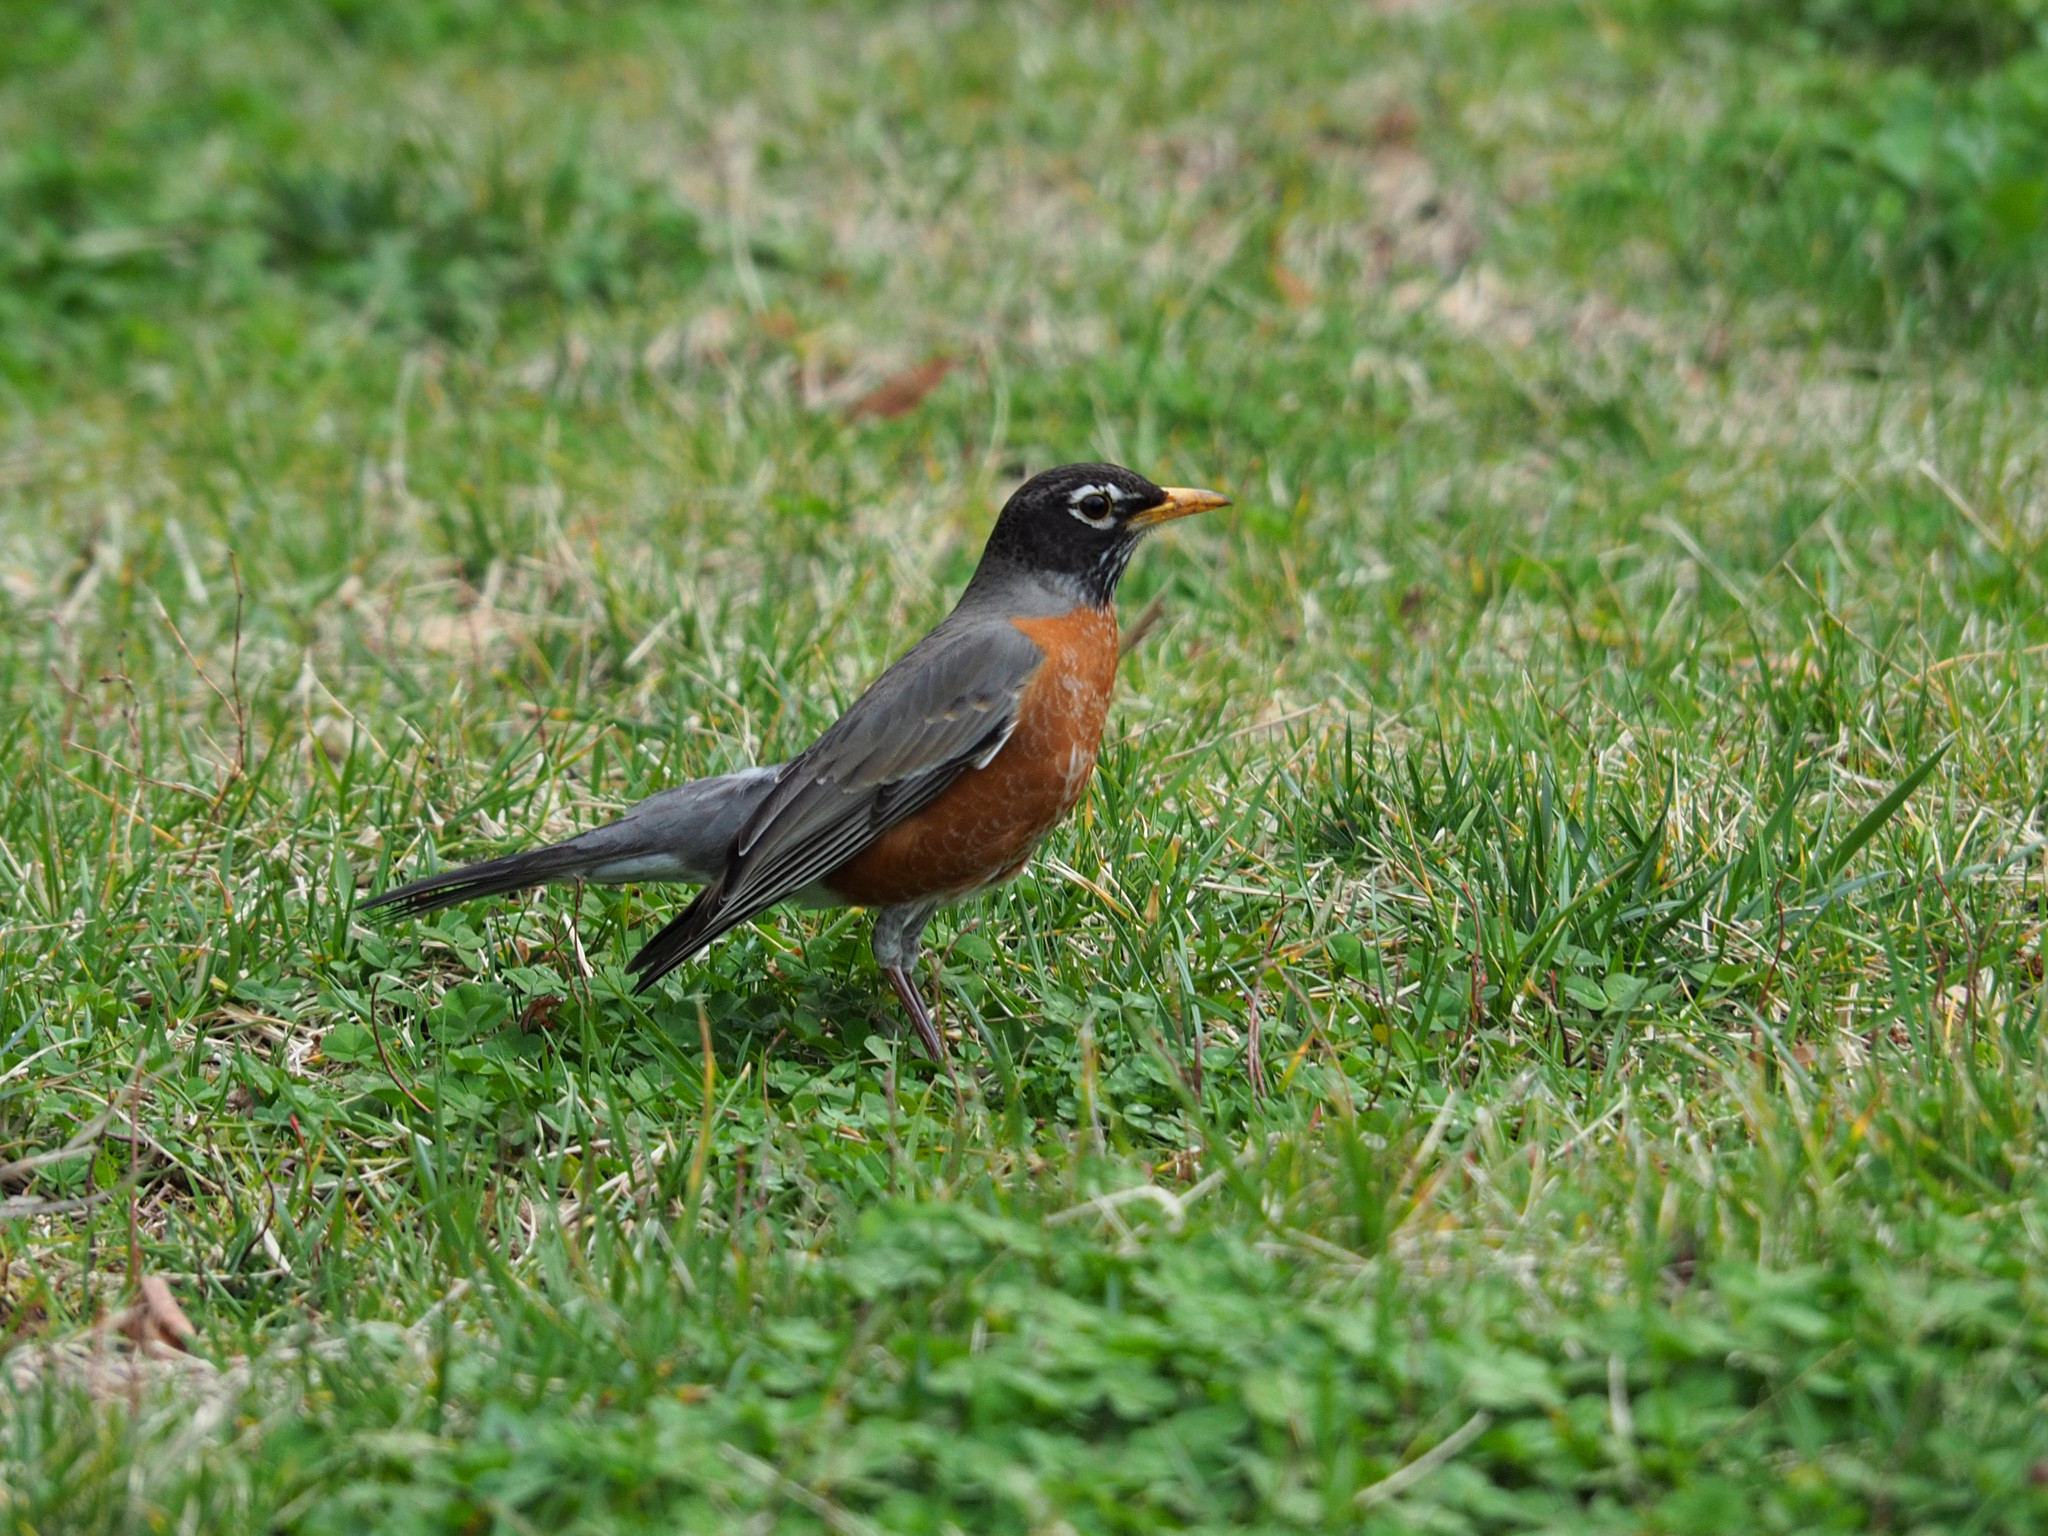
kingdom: Animalia
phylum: Chordata
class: Aves
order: Passeriformes
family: Turdidae
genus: Turdus
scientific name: Turdus migratorius
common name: American robin
